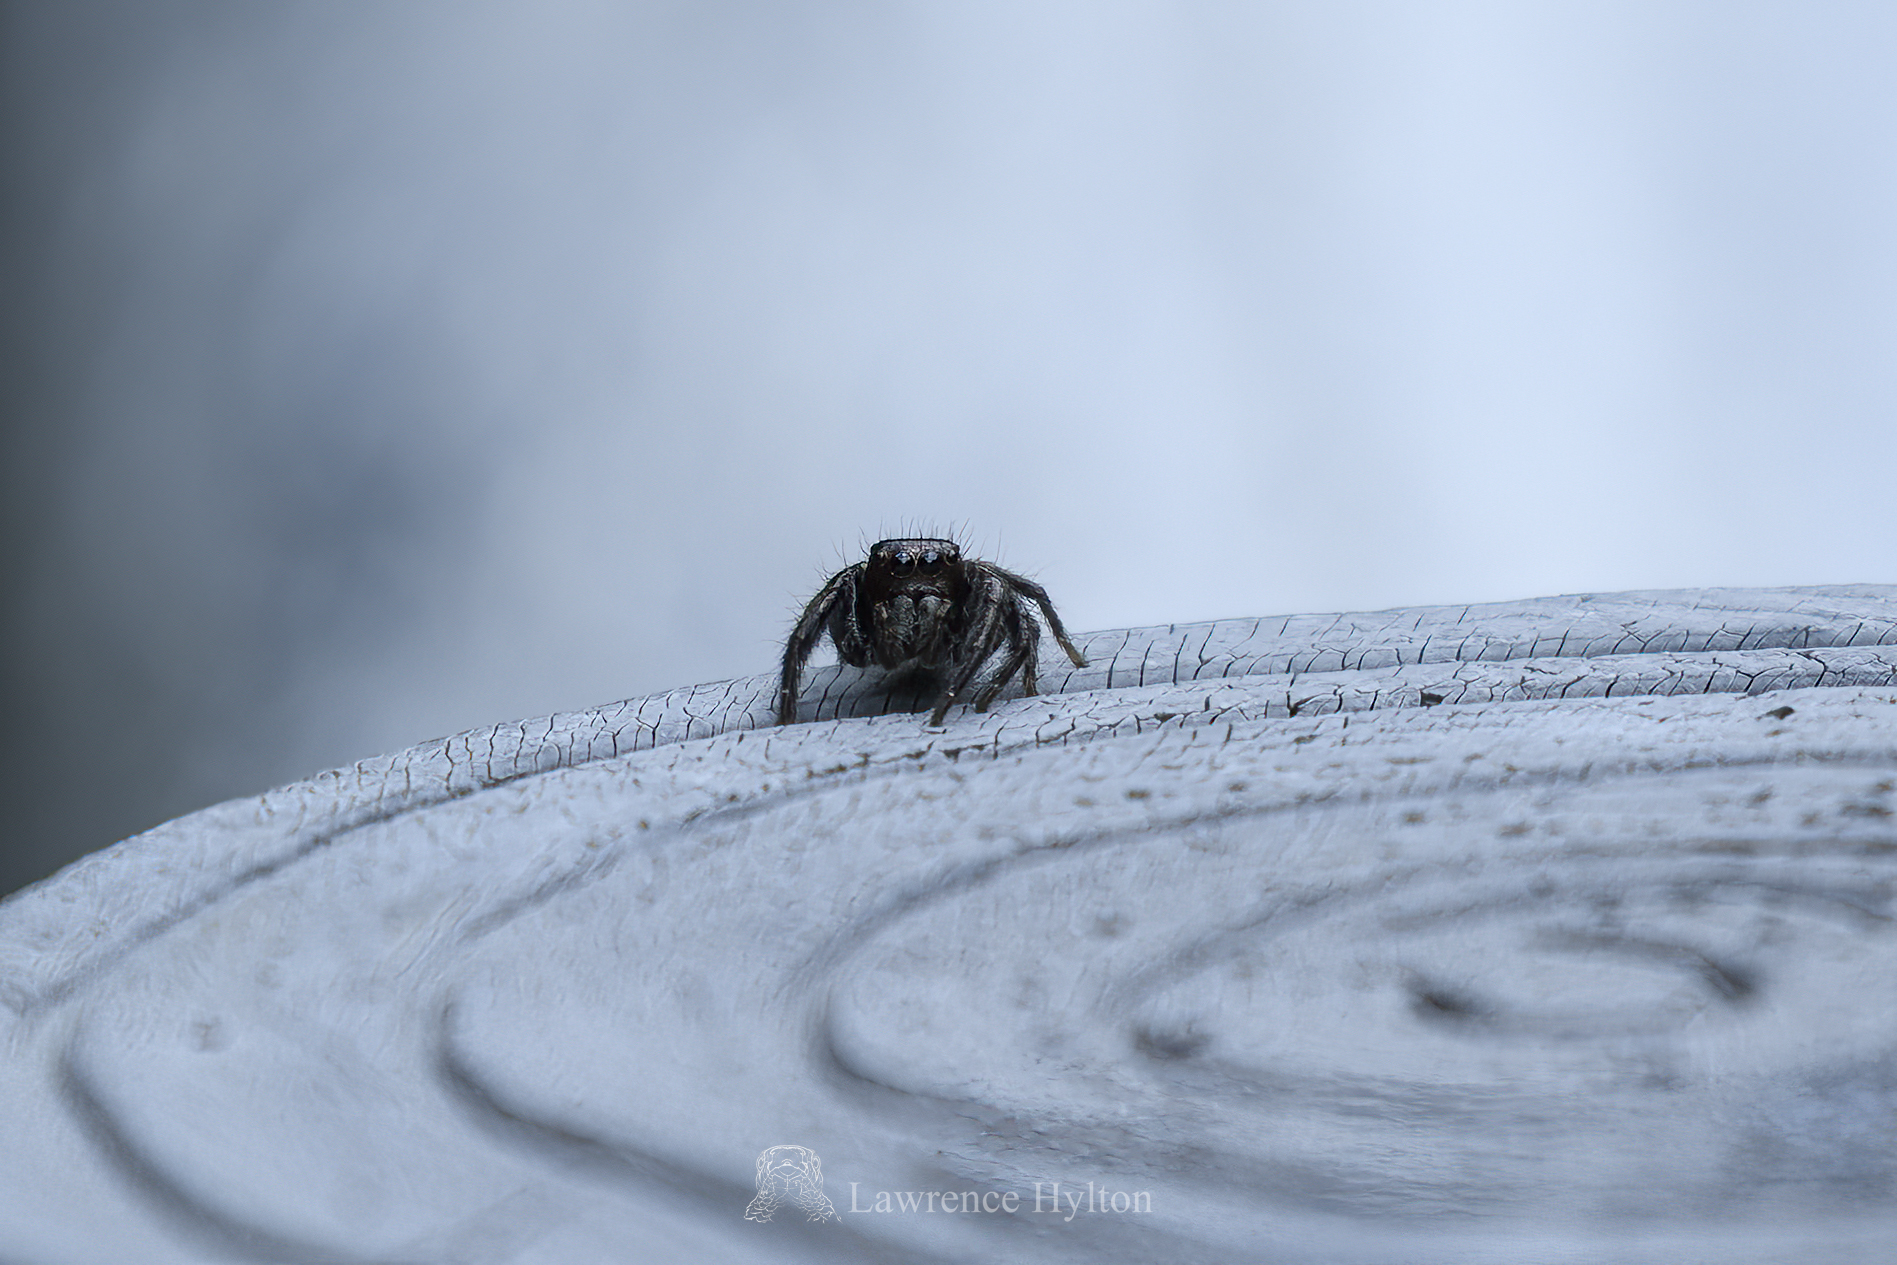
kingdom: Animalia
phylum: Arthropoda
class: Arachnida
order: Araneae
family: Salticidae
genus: Carrhotus
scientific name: Carrhotus viduus
